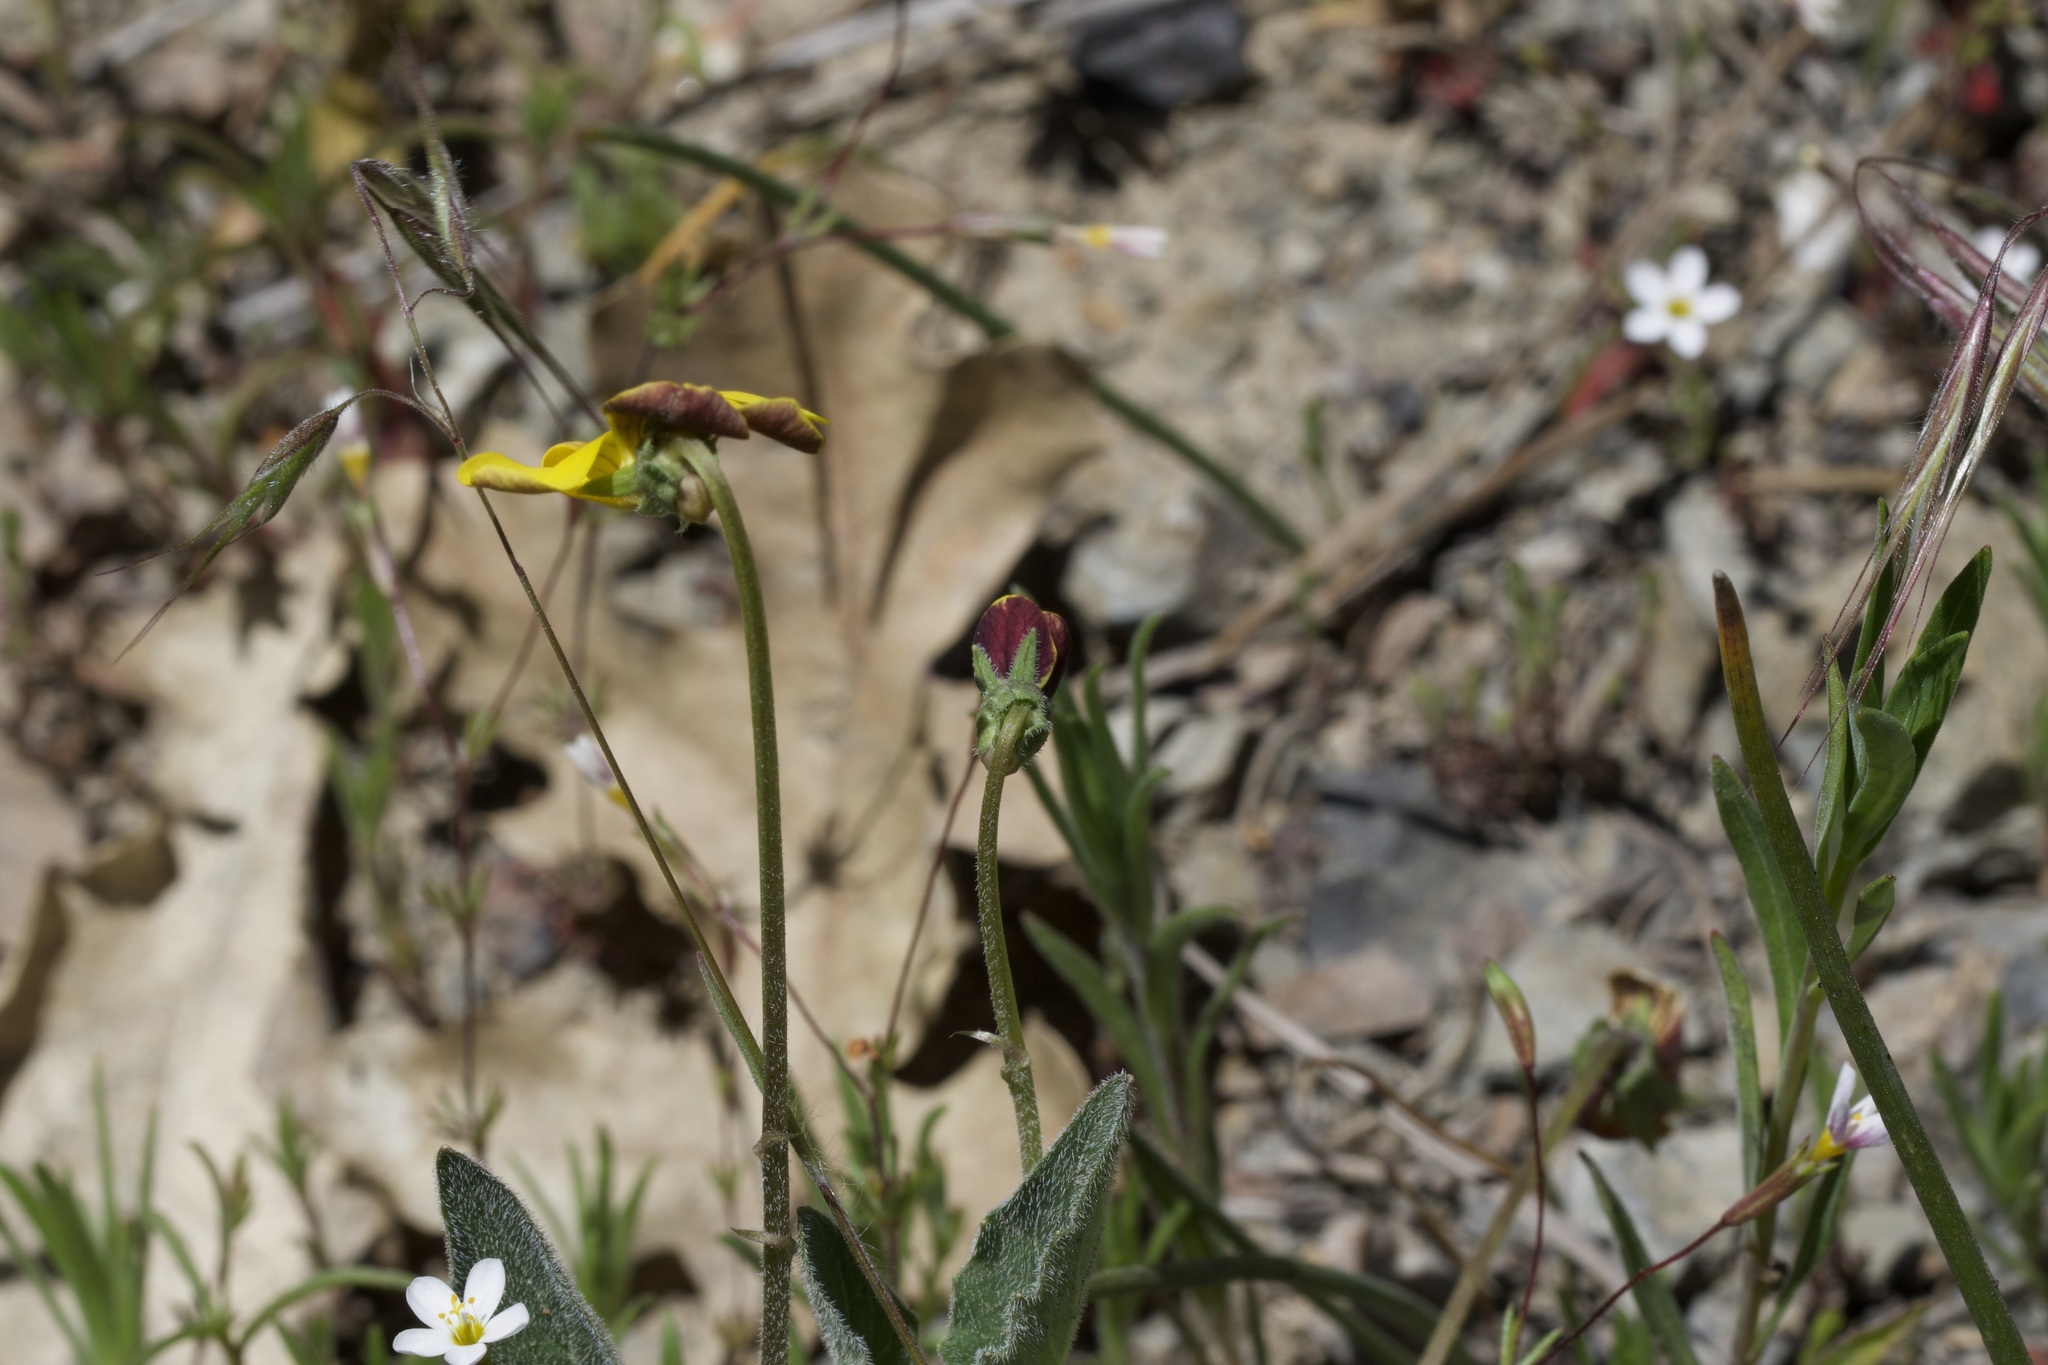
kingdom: Plantae
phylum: Tracheophyta
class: Magnoliopsida
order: Malpighiales
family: Violaceae
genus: Viola
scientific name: Viola quercetorum
